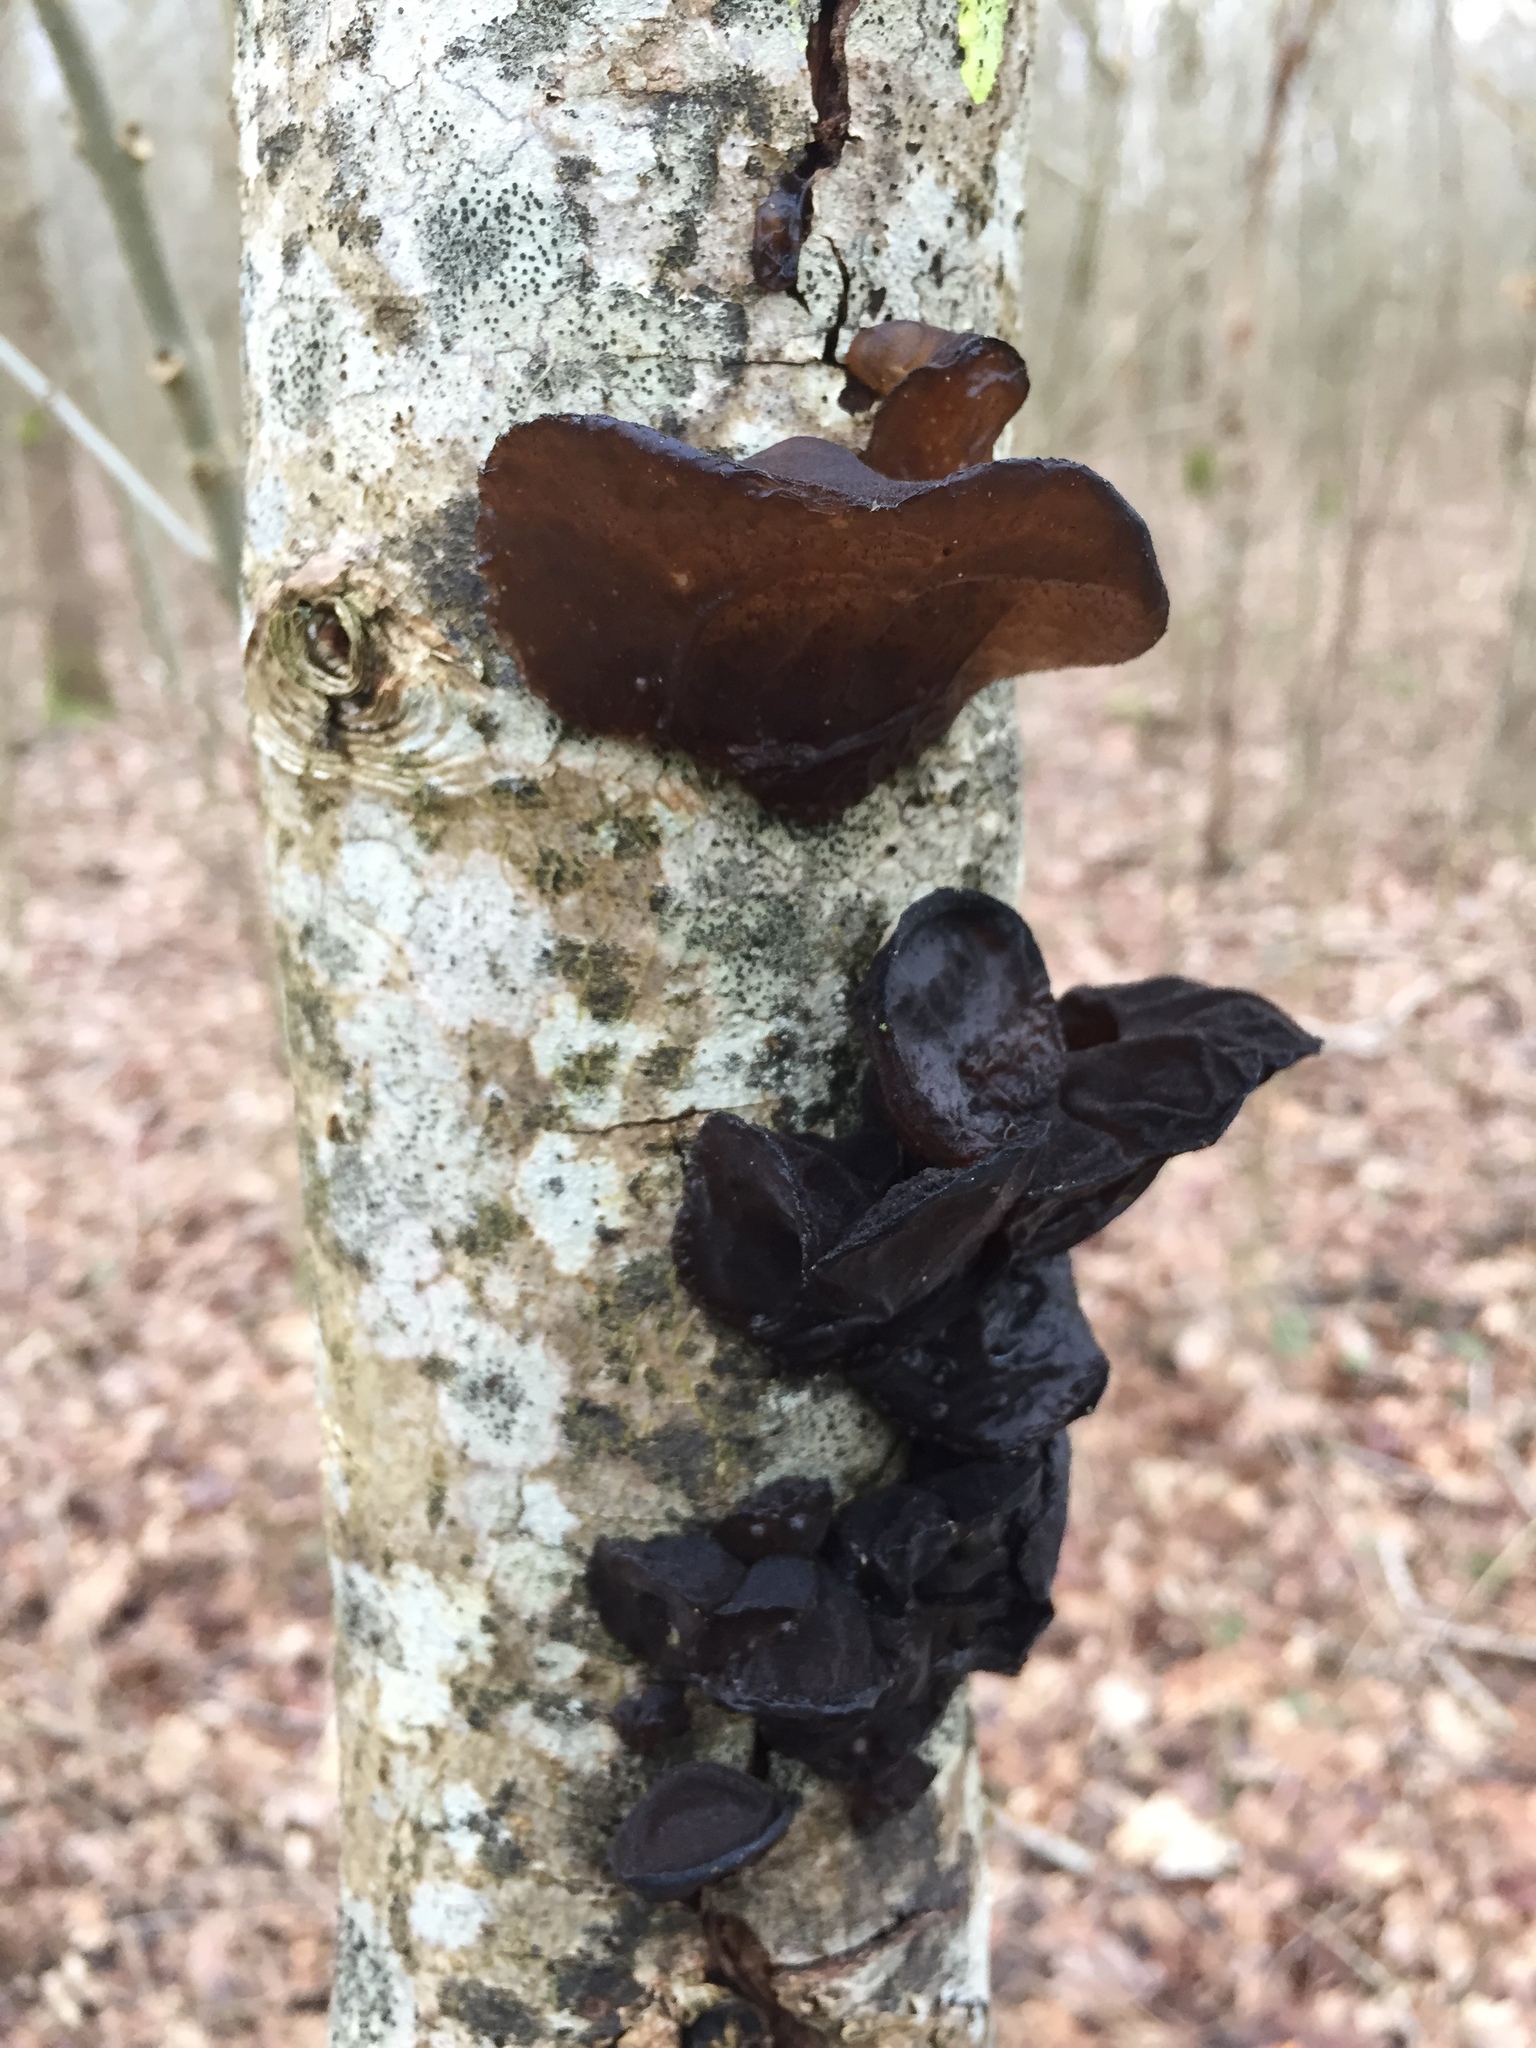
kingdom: Fungi
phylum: Basidiomycota
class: Agaricomycetes
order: Auriculariales
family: Auriculariaceae
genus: Exidia
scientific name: Exidia glandulosa
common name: Witches' butter
